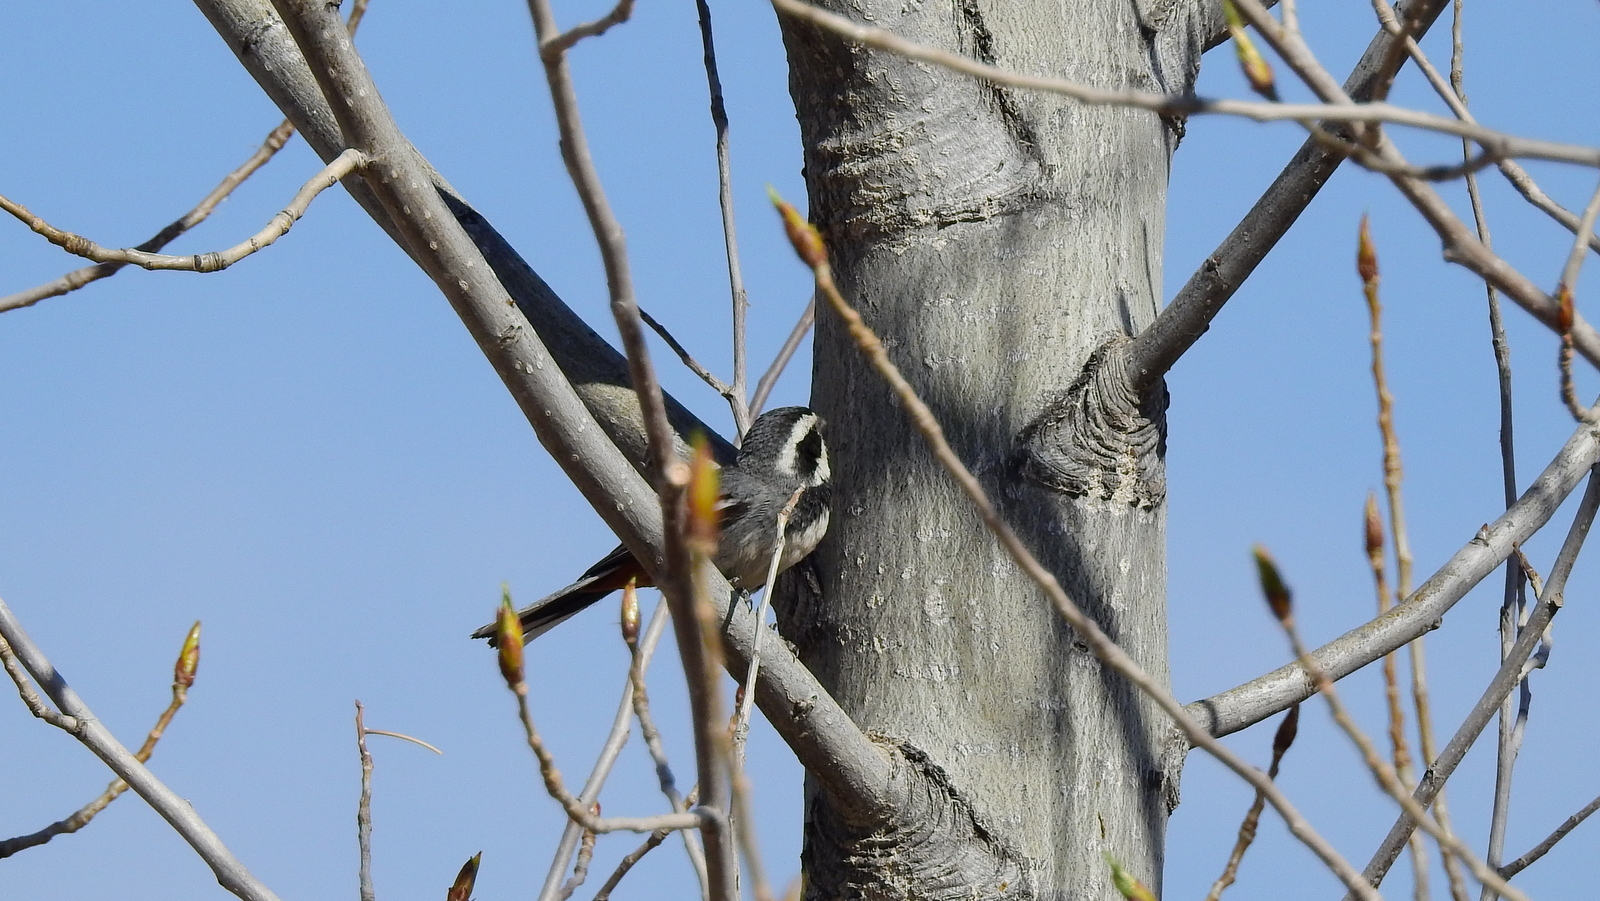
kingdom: Animalia
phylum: Chordata
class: Aves
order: Passeriformes
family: Thraupidae
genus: Microspingus
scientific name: Microspingus torquatus
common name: Ringed warbling-finch
